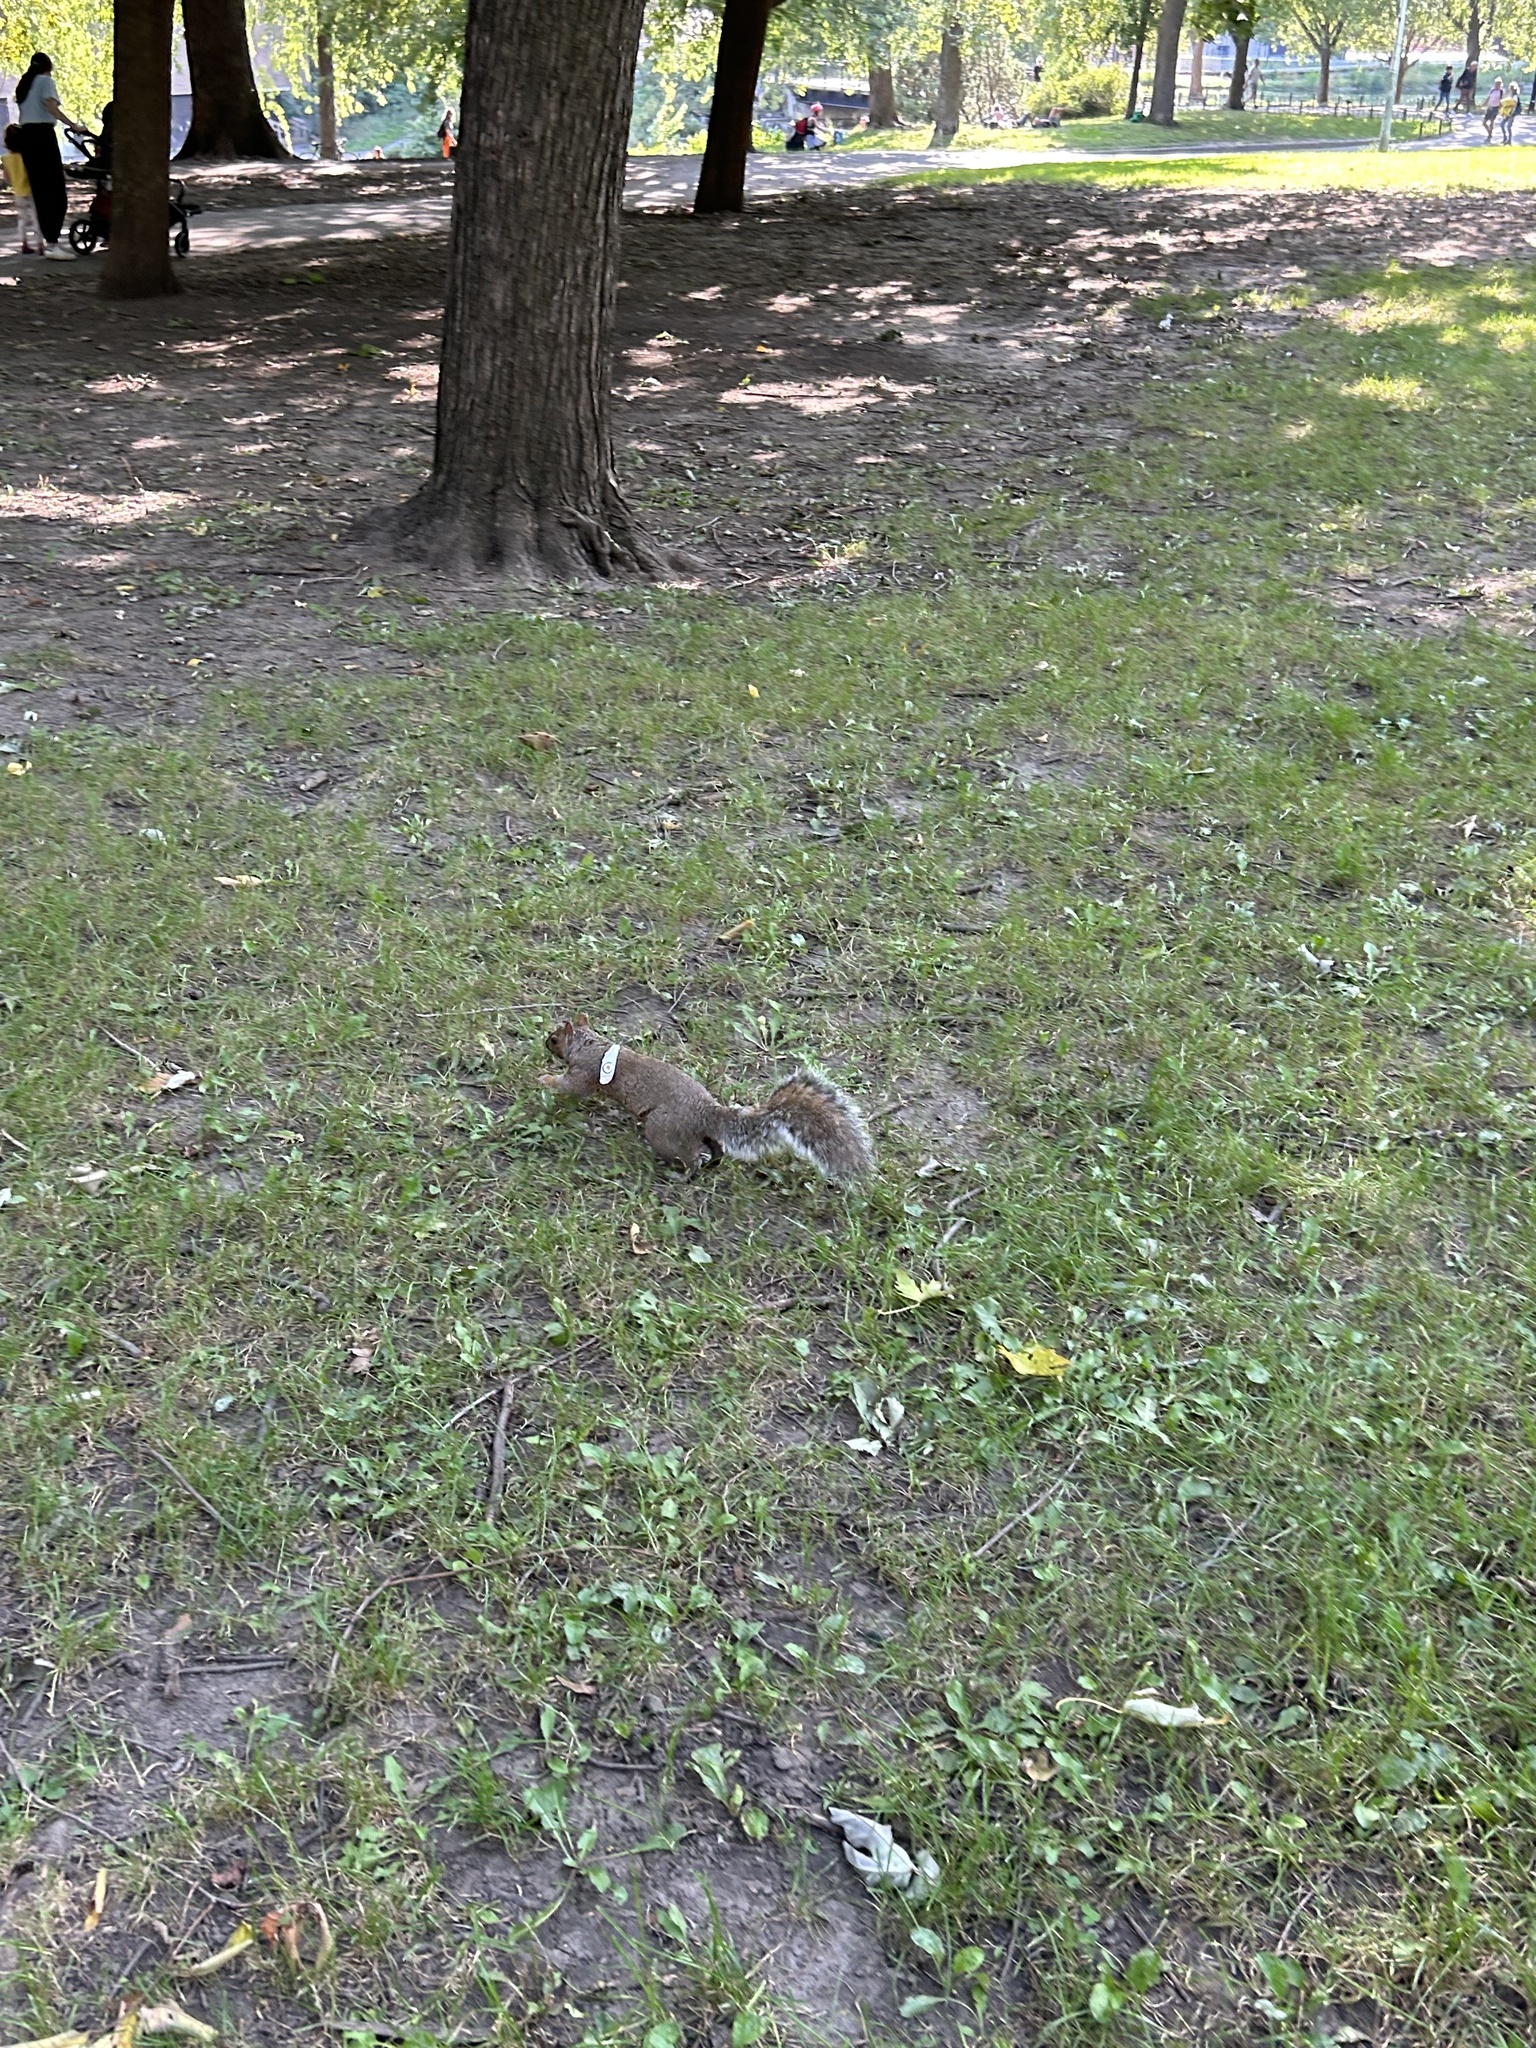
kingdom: Animalia
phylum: Chordata
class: Mammalia
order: Rodentia
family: Sciuridae
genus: Sciurus
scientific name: Sciurus carolinensis
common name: Eastern gray squirrel
